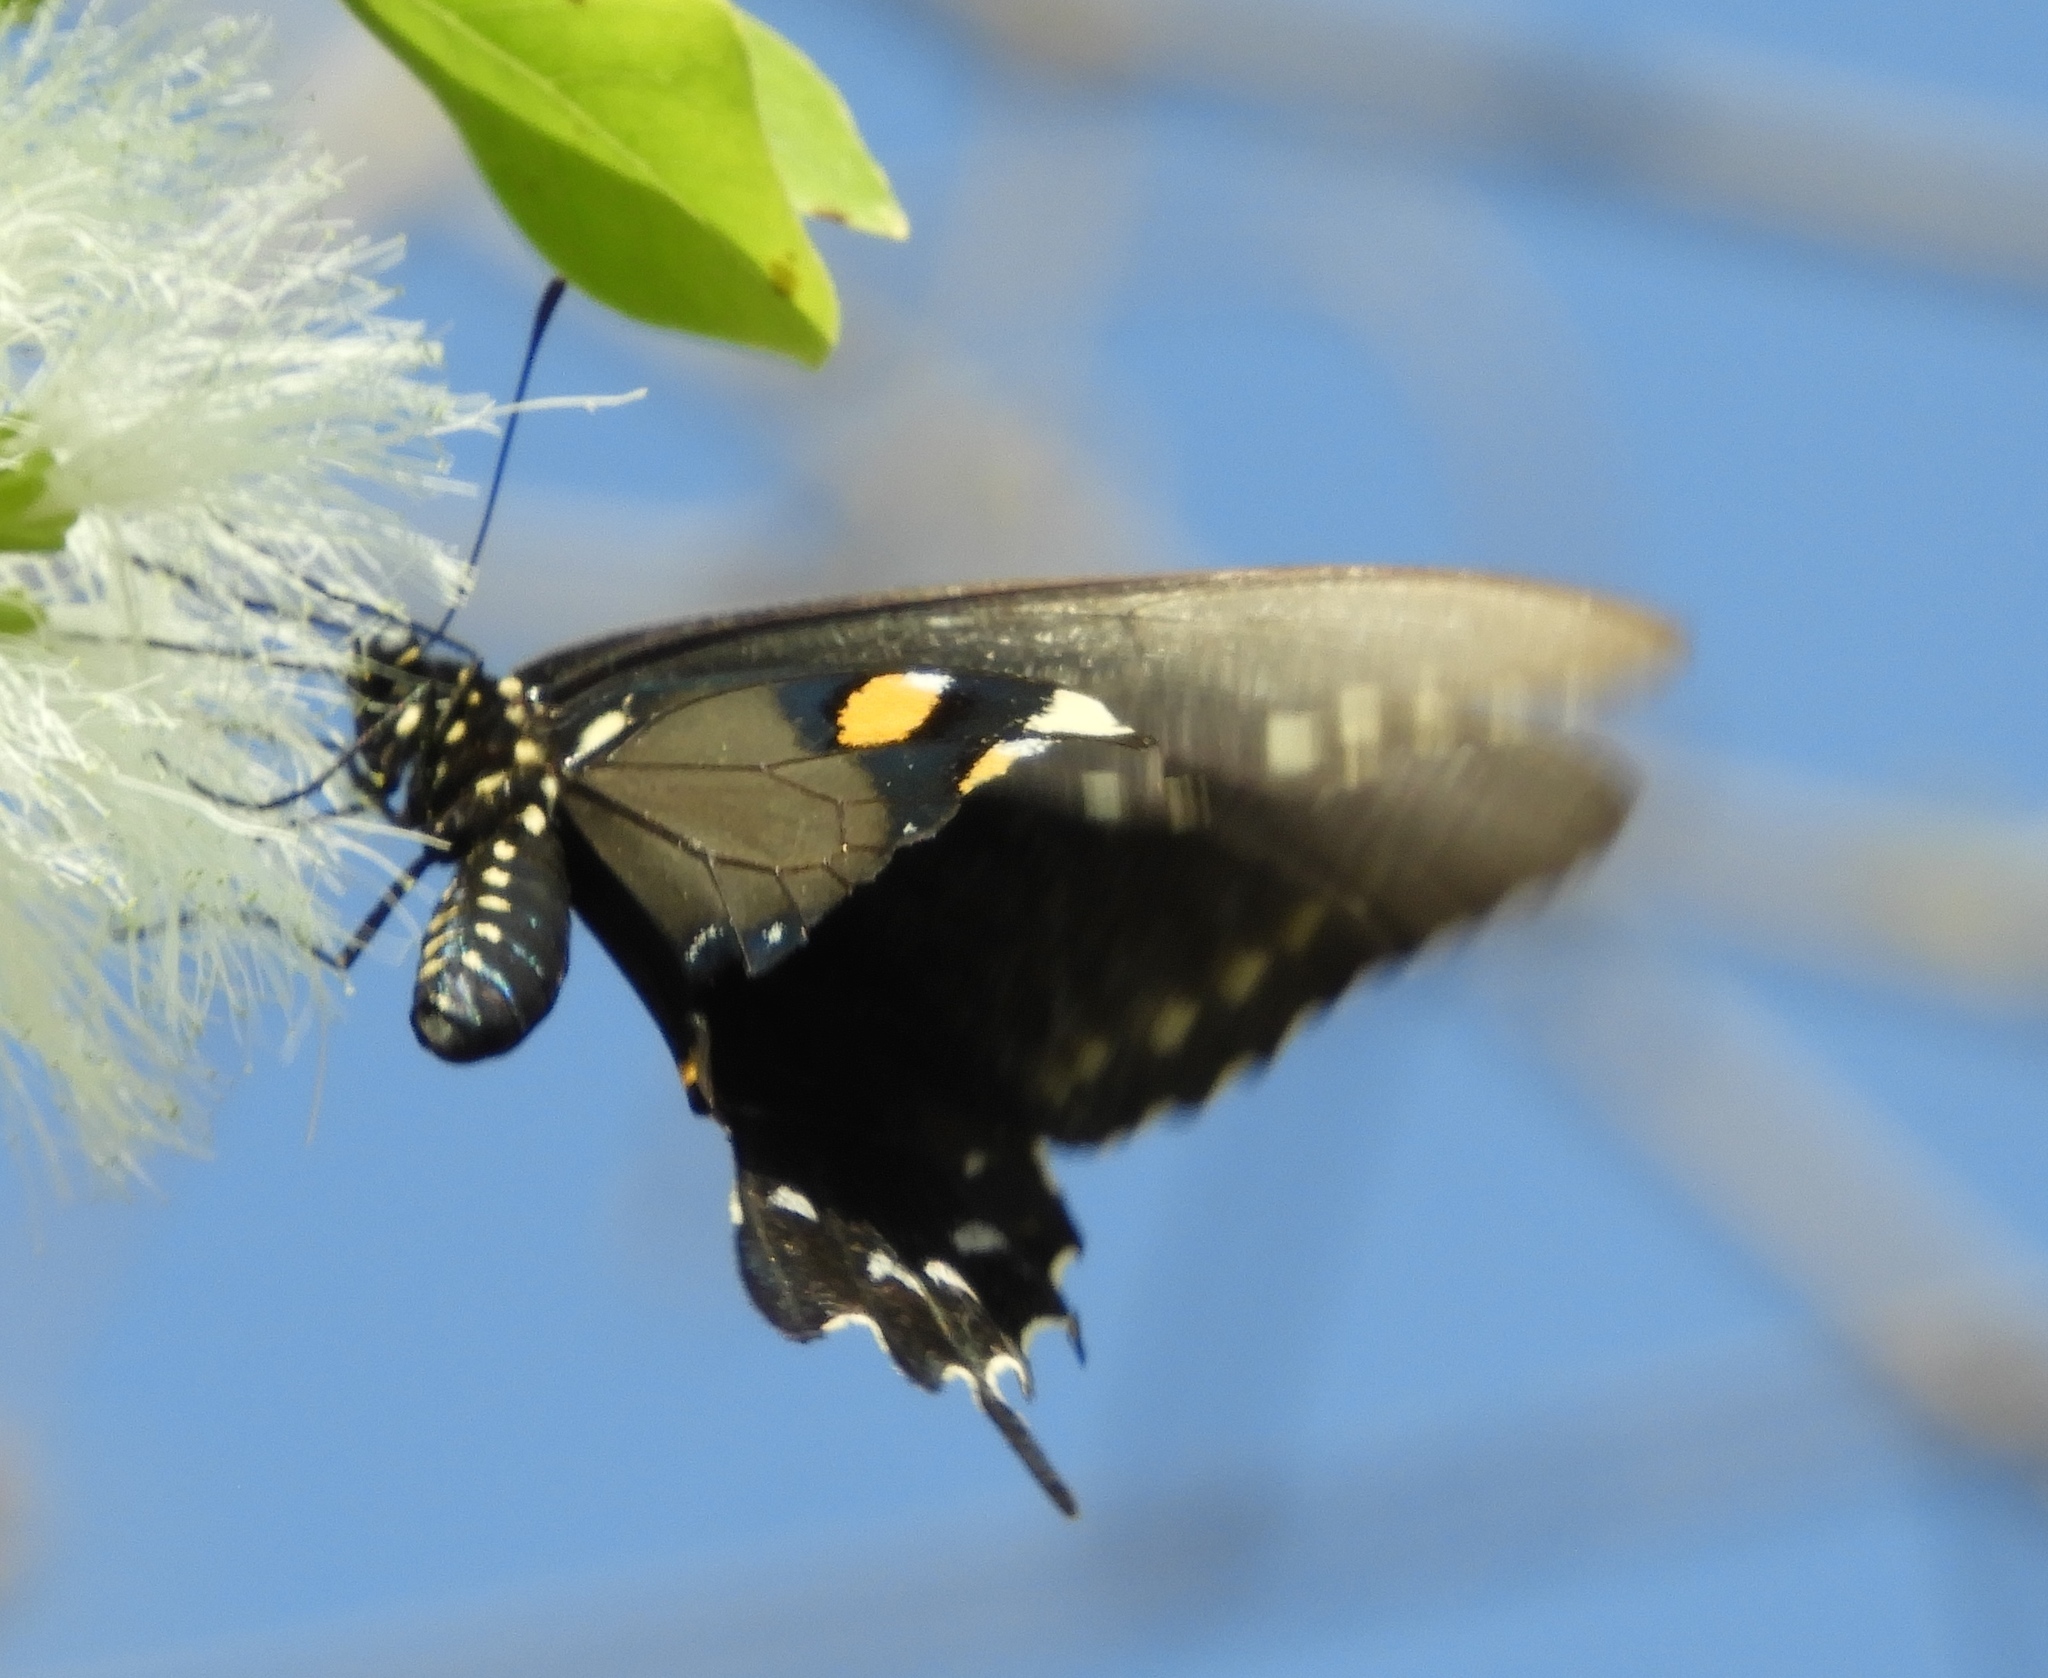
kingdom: Animalia
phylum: Arthropoda
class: Insecta
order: Lepidoptera
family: Papilionidae
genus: Battus
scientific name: Battus philenor
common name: Pipevine swallowtail
